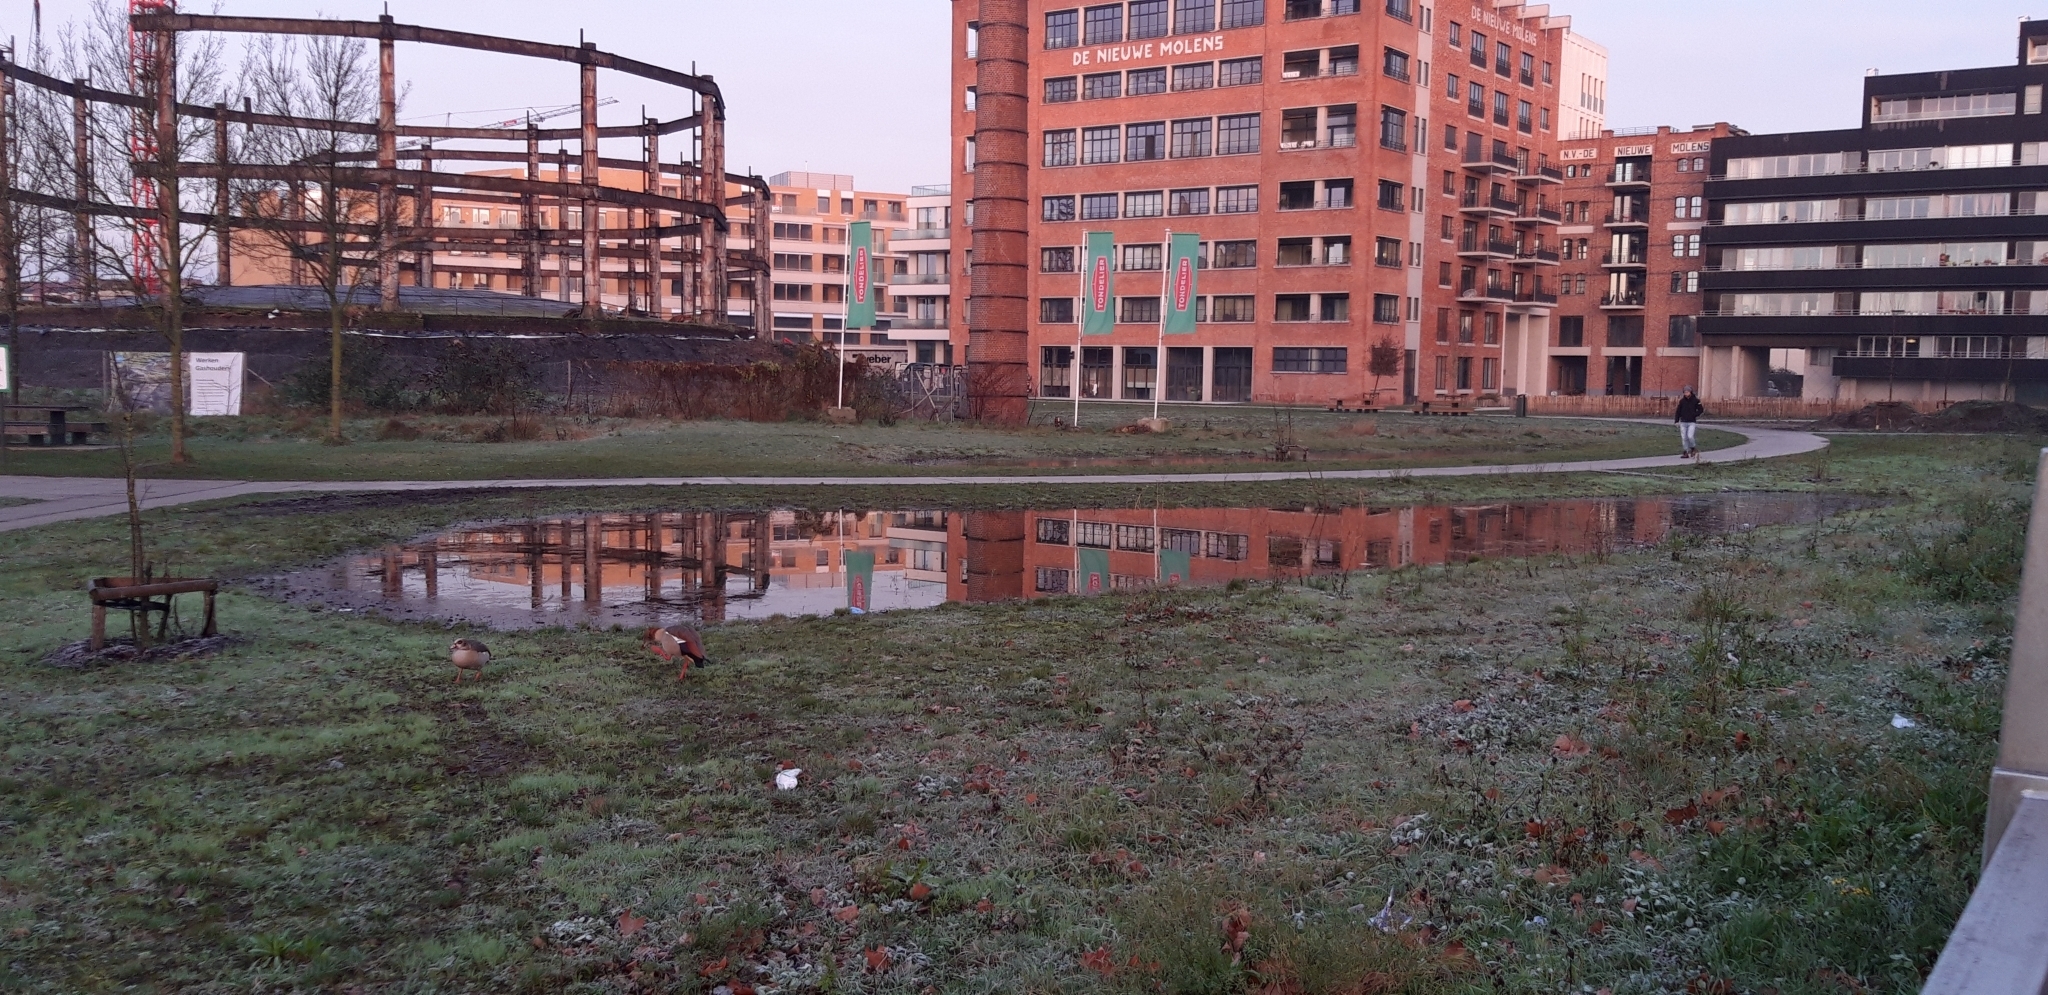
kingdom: Animalia
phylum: Chordata
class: Aves
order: Anseriformes
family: Anatidae
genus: Alopochen
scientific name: Alopochen aegyptiaca
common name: Egyptian goose
